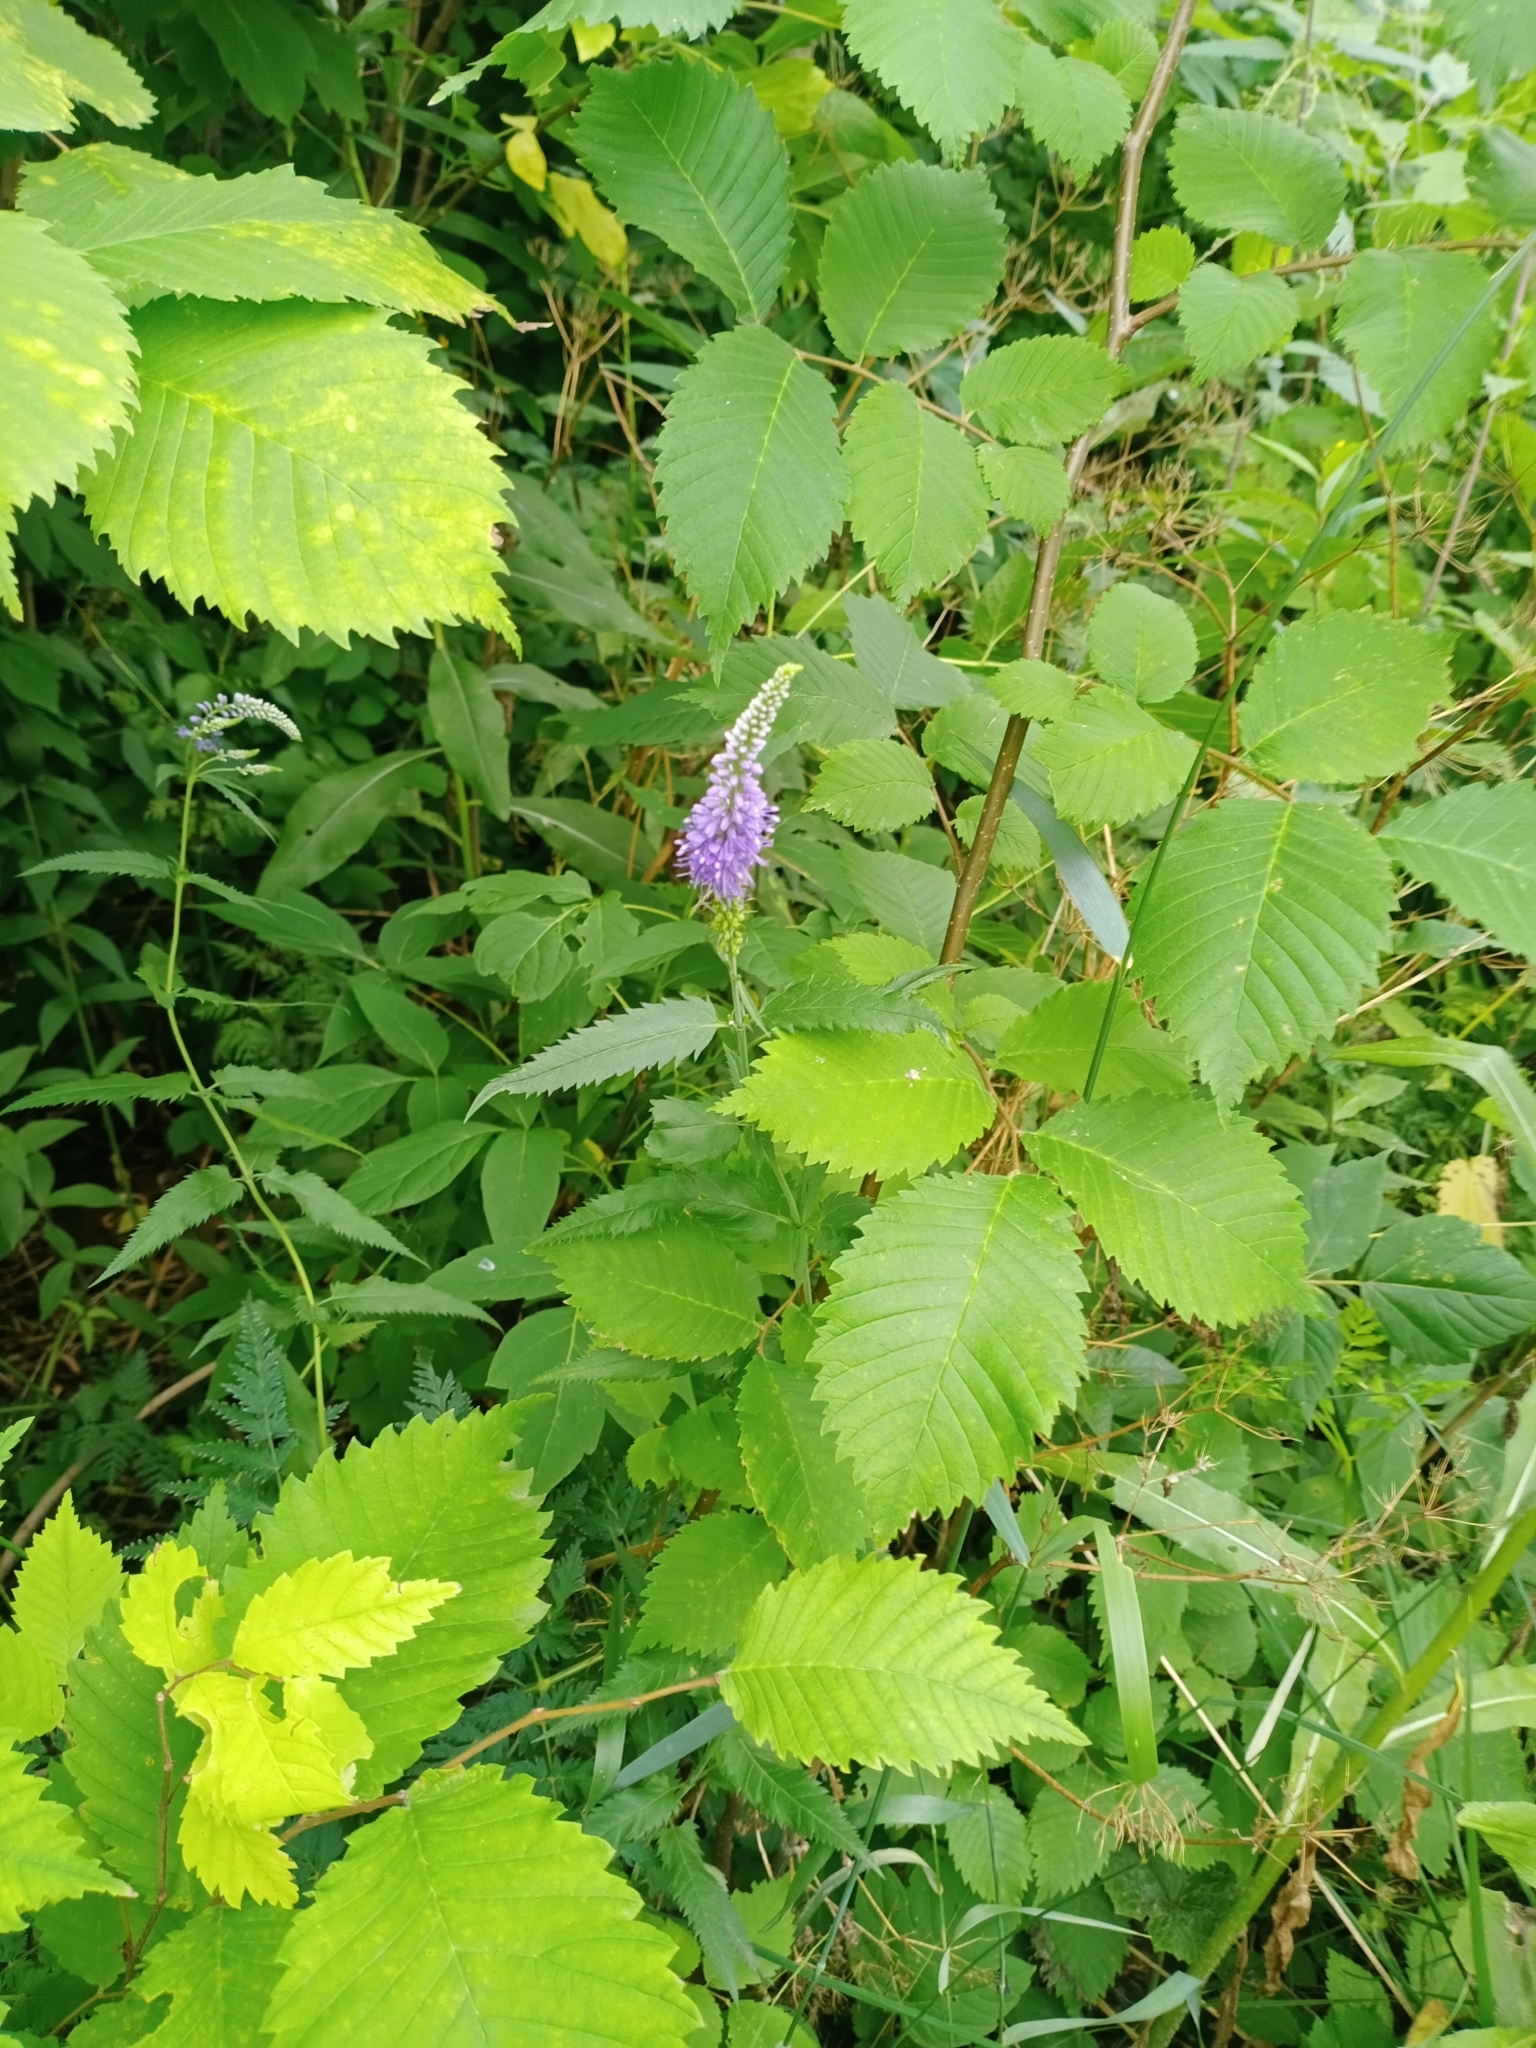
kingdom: Plantae
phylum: Tracheophyta
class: Magnoliopsida
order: Lamiales
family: Plantaginaceae
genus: Veronica
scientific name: Veronica longifolia
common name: Garden speedwell
